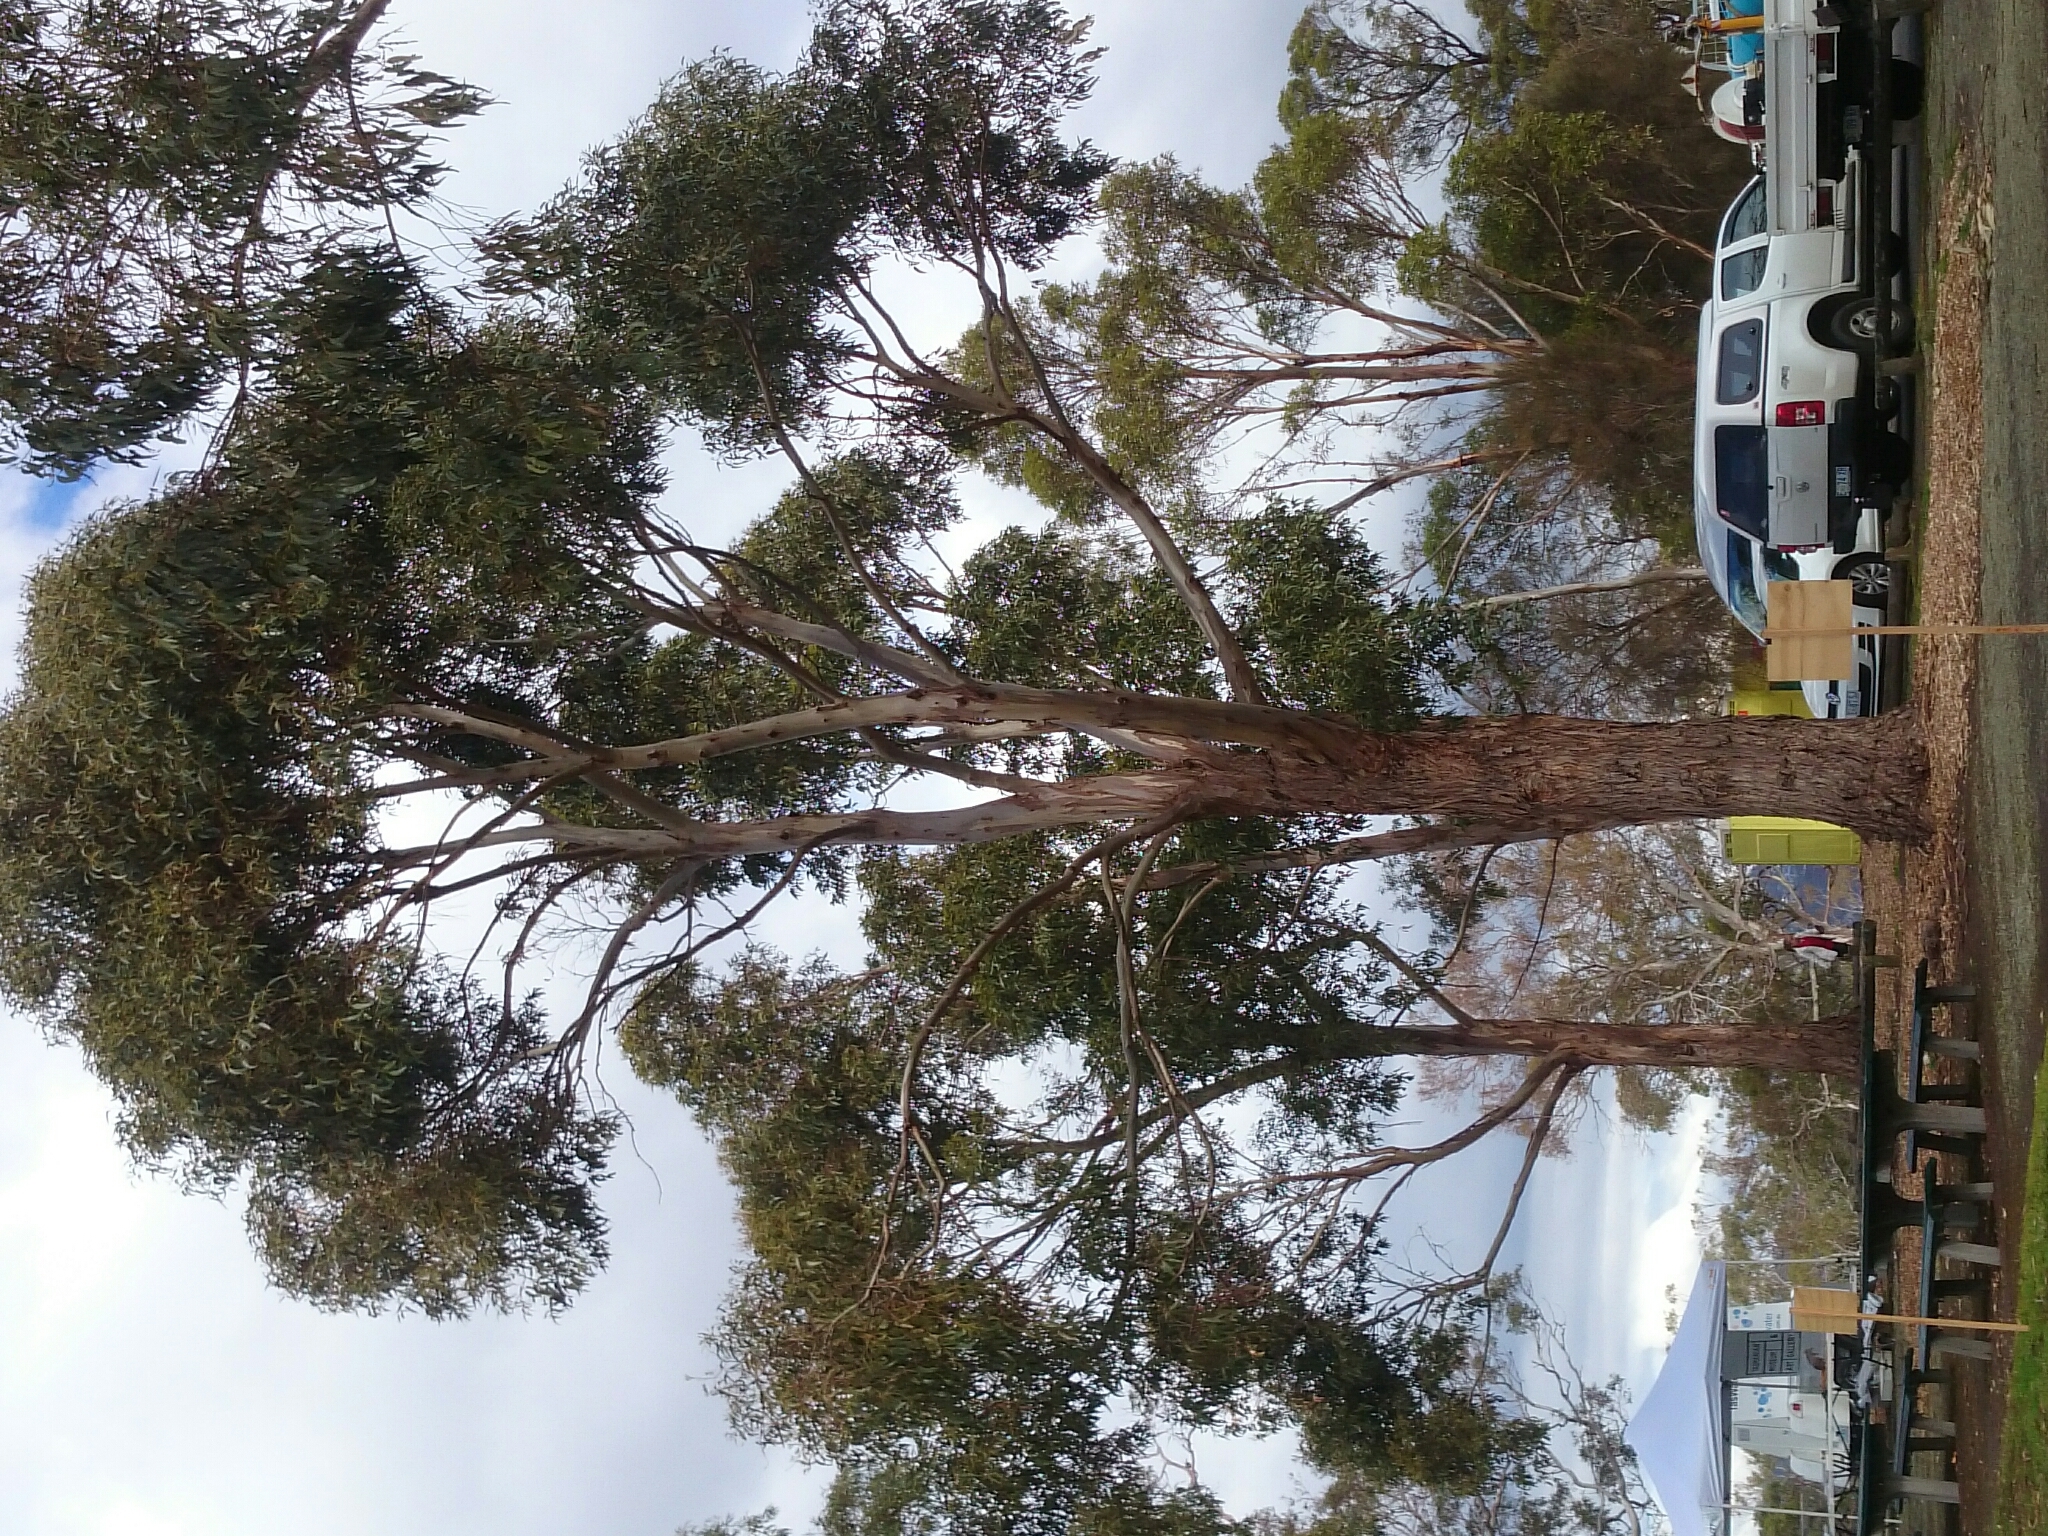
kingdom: Plantae
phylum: Tracheophyta
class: Magnoliopsida
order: Myrtales
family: Myrtaceae
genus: Eucalyptus
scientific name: Eucalyptus globulus
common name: Southern blue-gum
